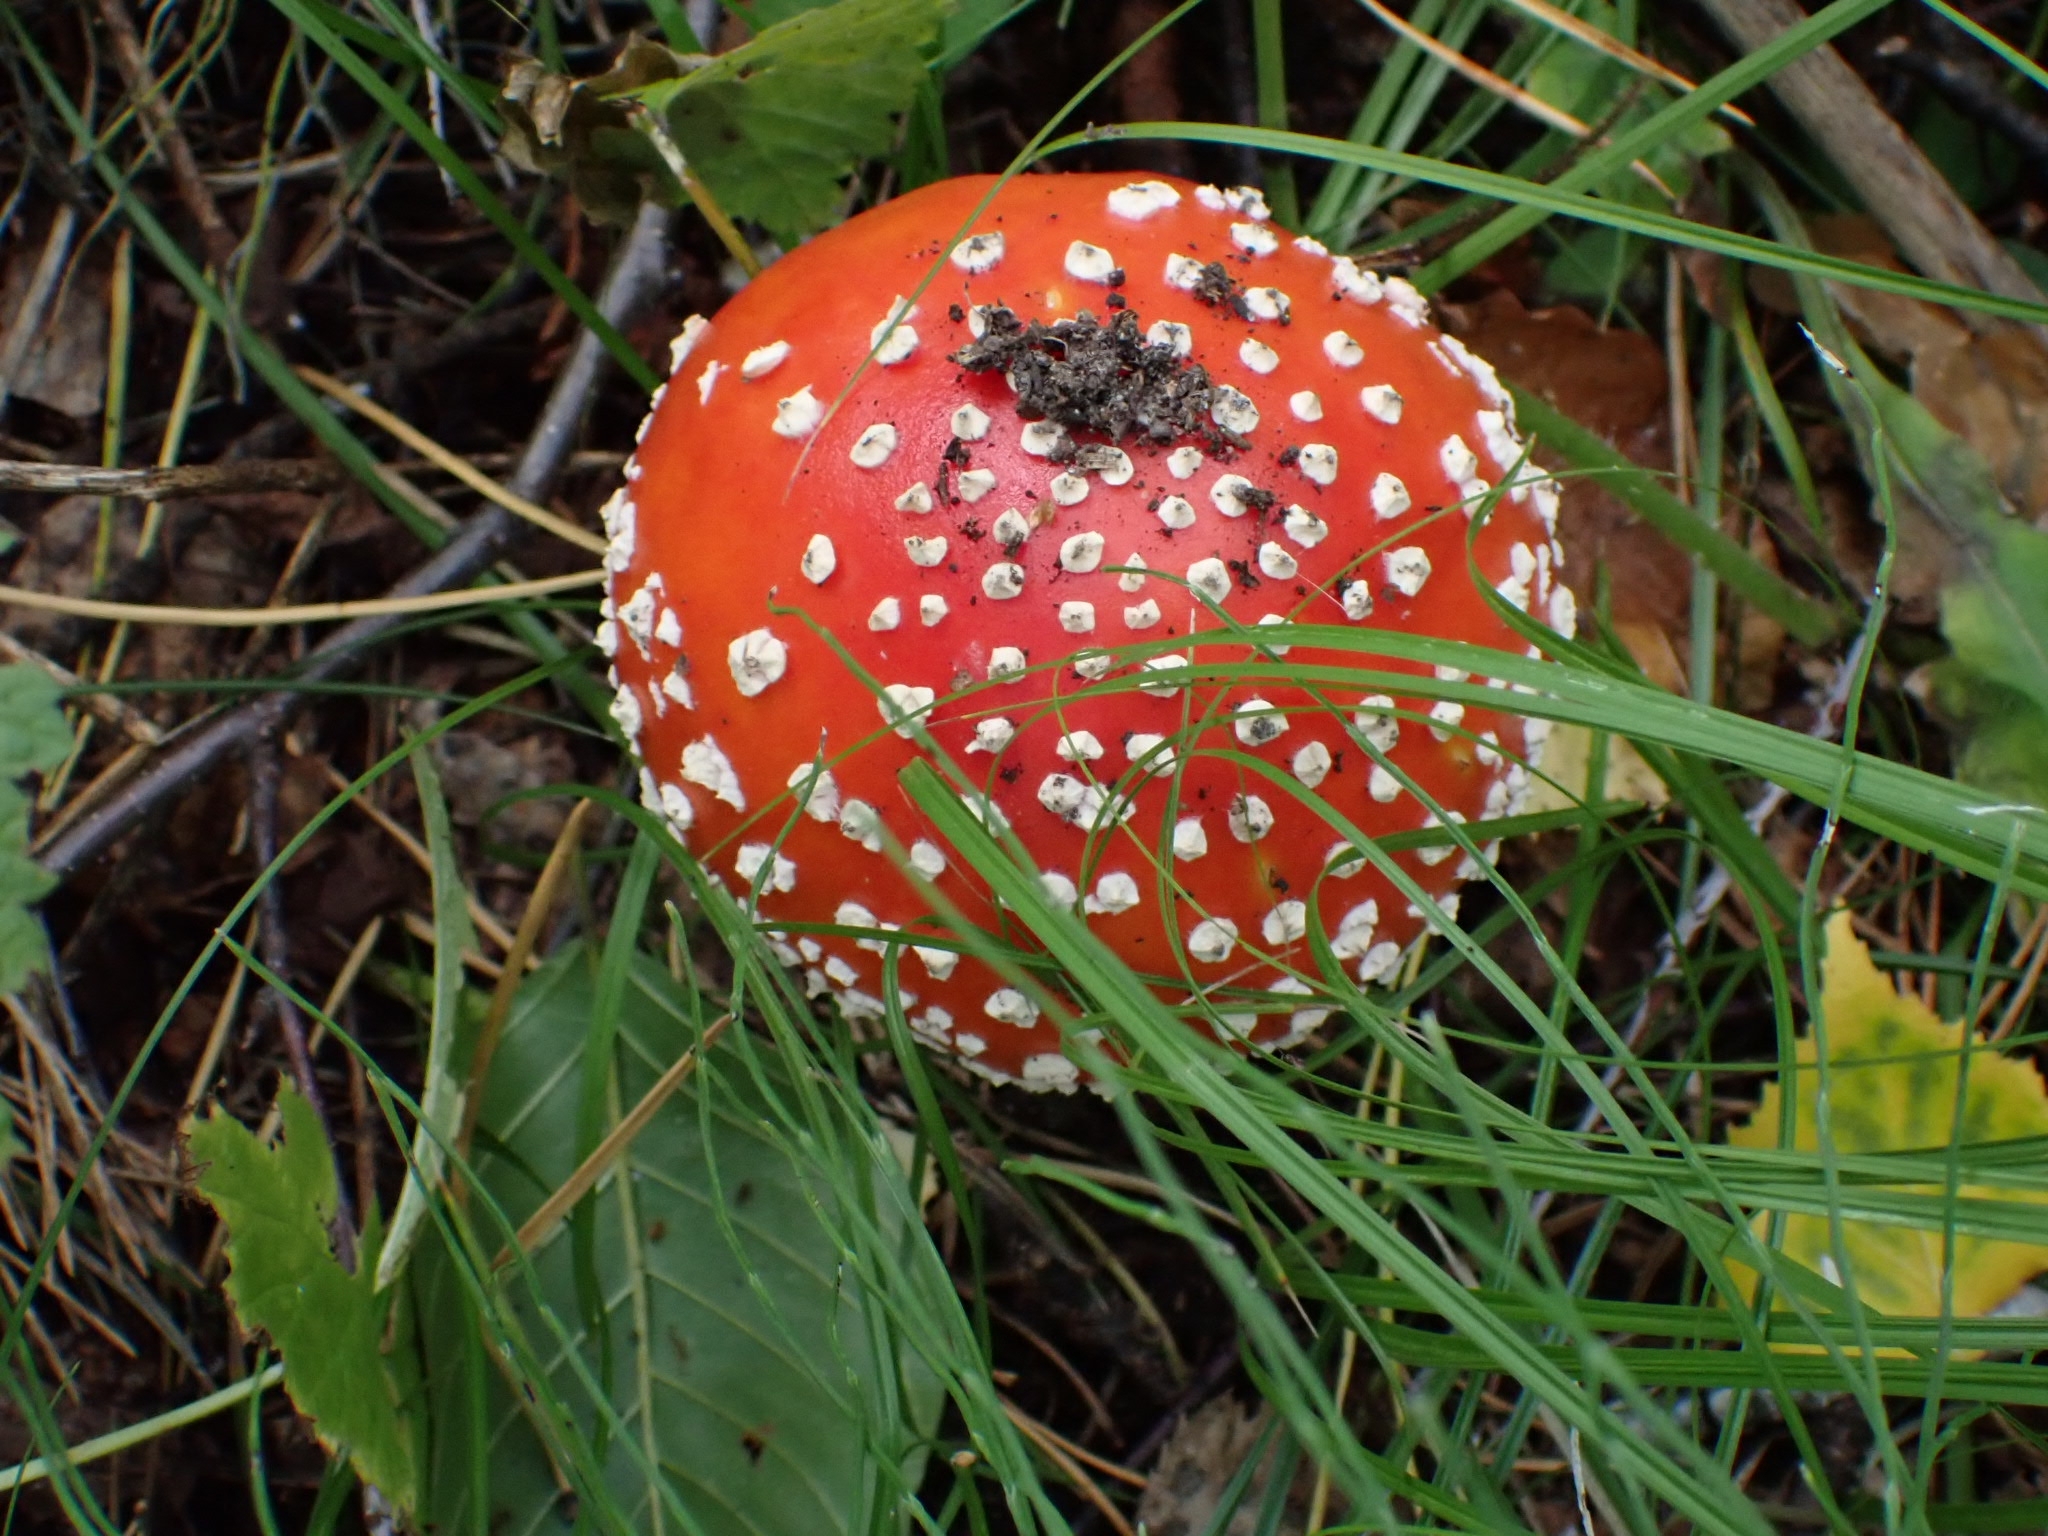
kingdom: Fungi
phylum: Basidiomycota
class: Agaricomycetes
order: Agaricales
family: Amanitaceae
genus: Amanita
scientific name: Amanita muscaria
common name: Fly agaric
